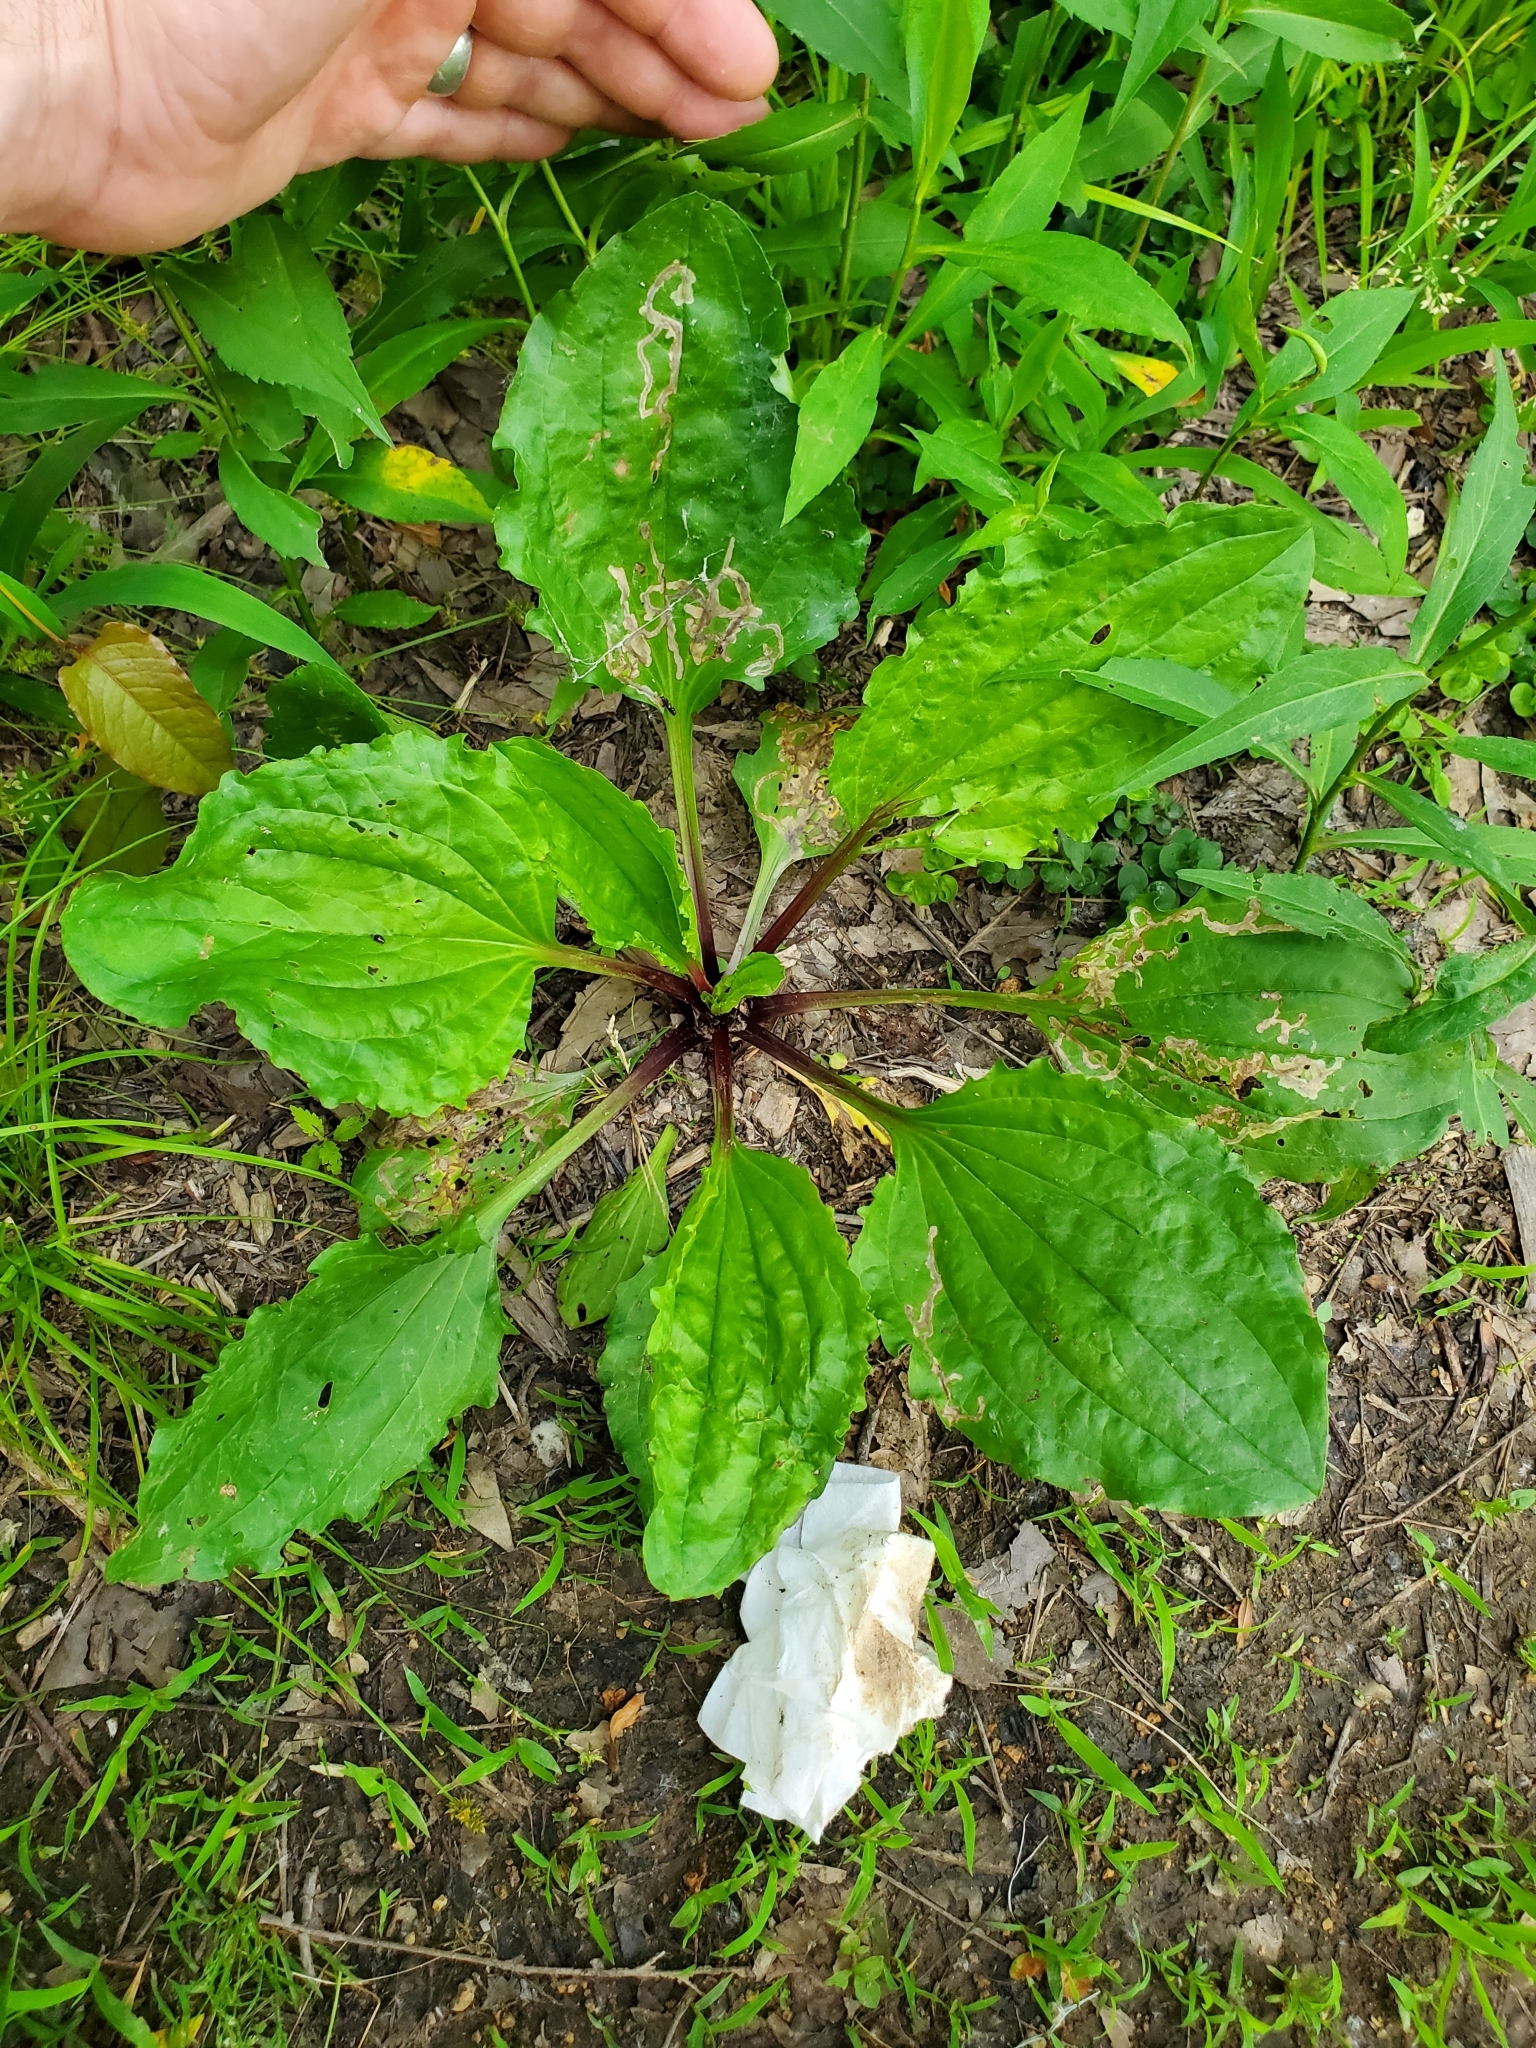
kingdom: Animalia
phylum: Arthropoda
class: Insecta
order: Coleoptera
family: Chrysomelidae
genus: Dibolia
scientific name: Dibolia borealis
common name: Northern plantain flea beetle
